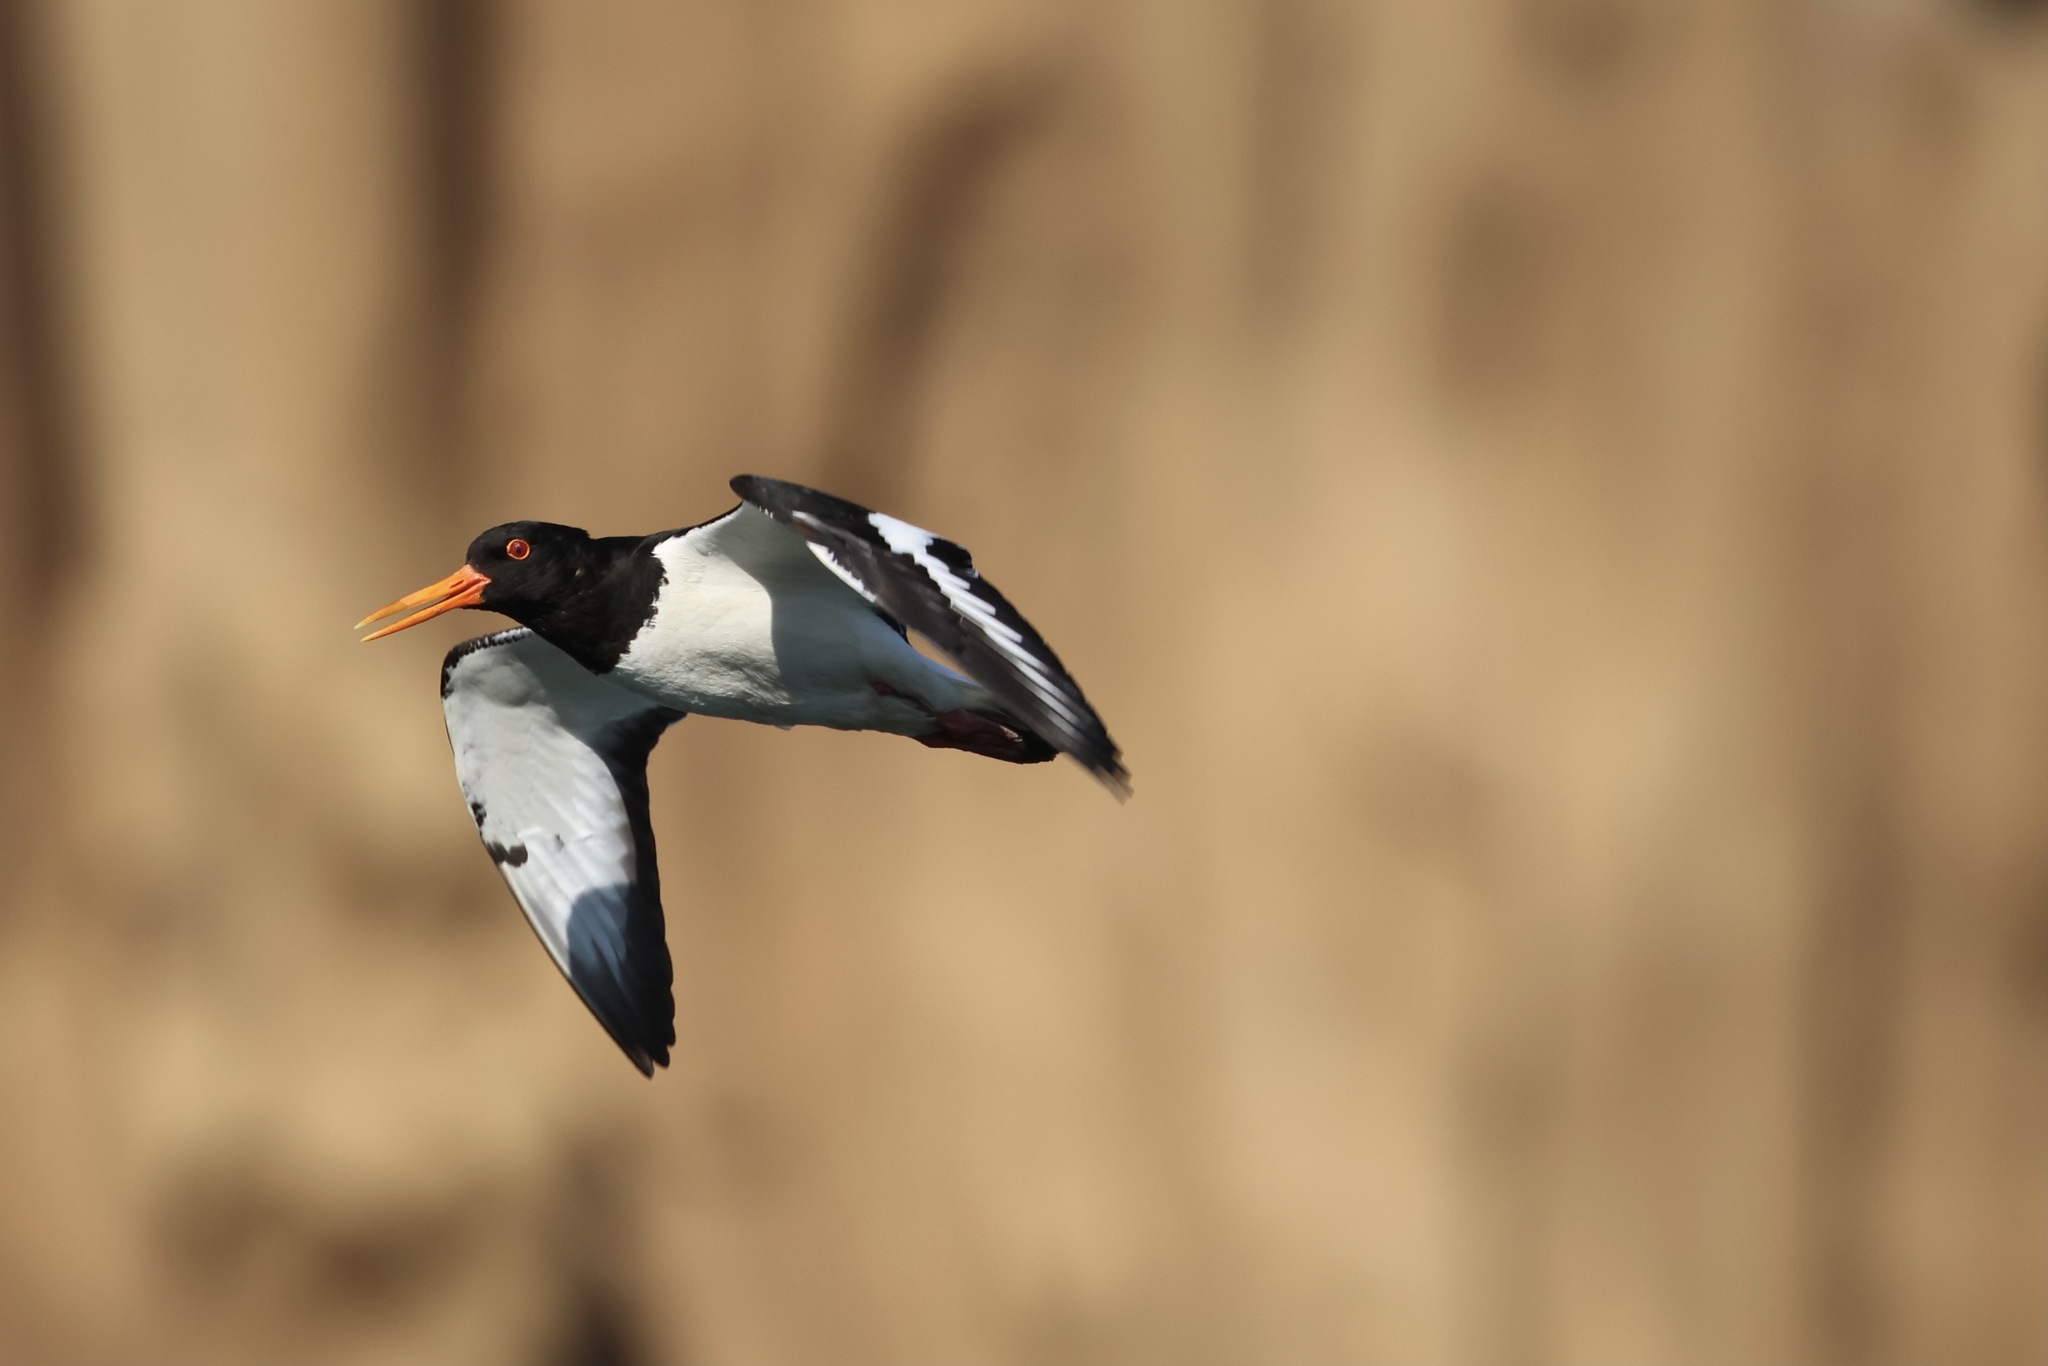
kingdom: Animalia
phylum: Chordata
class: Aves
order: Charadriiformes
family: Haematopodidae
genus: Haematopus
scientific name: Haematopus ostralegus
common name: Eurasian oystercatcher
